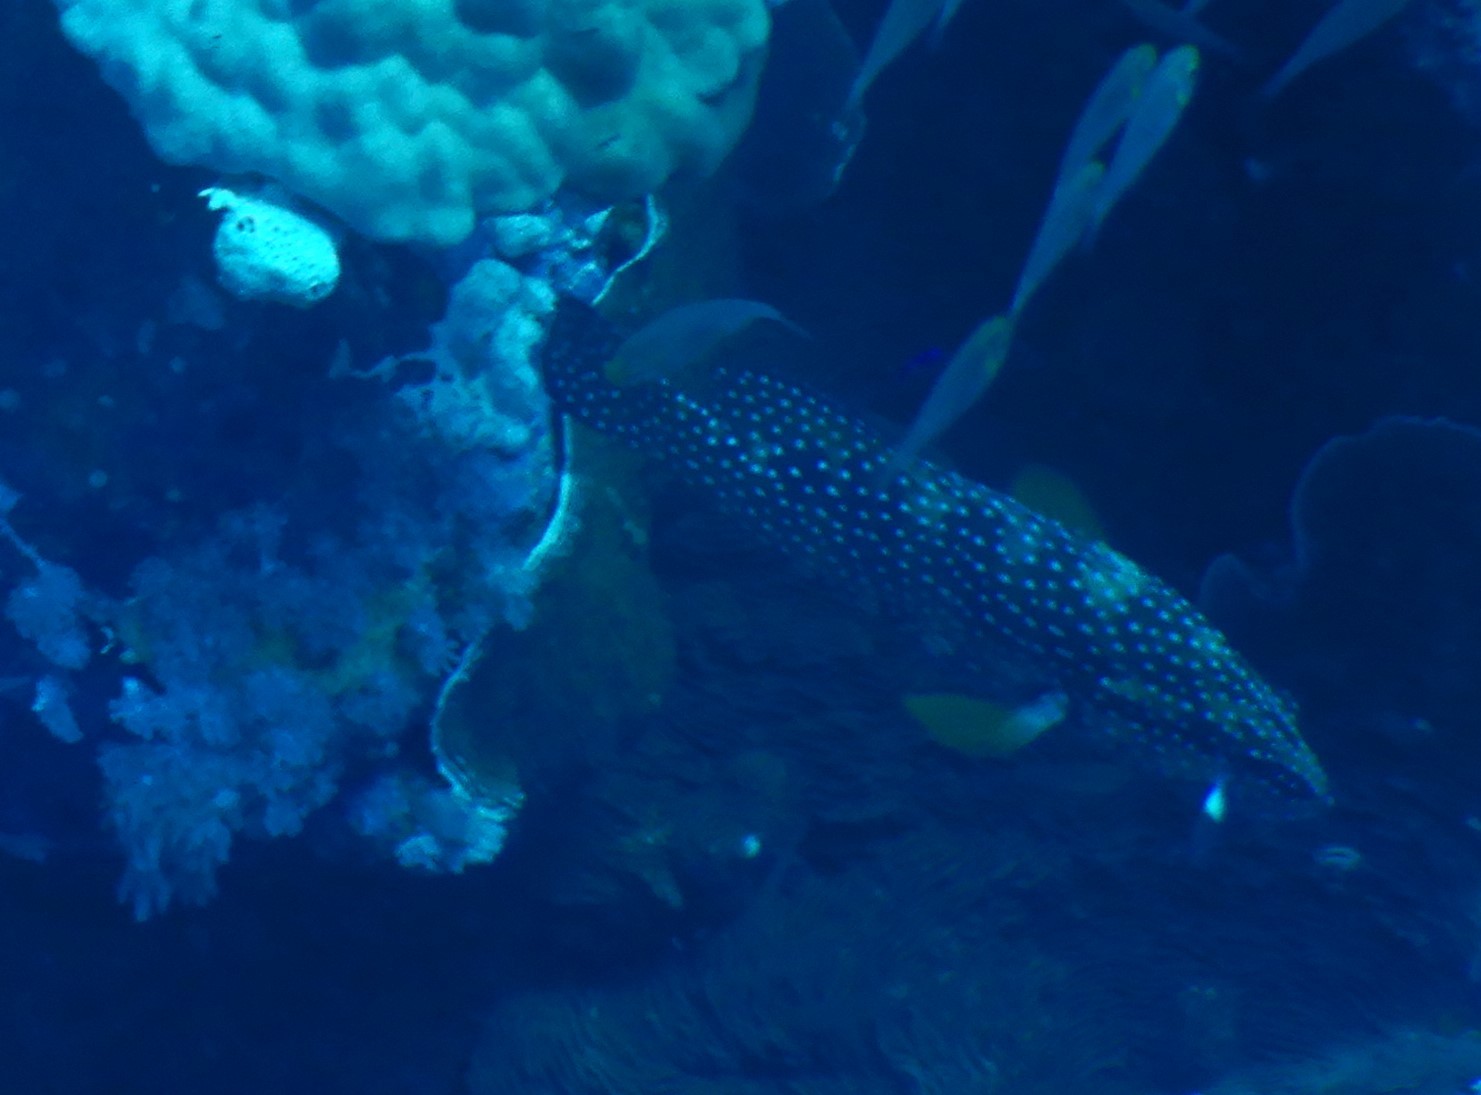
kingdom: Animalia
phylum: Chordata
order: Perciformes
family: Serranidae
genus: Cephalopholis
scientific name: Cephalopholis miniata
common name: Coral hind
